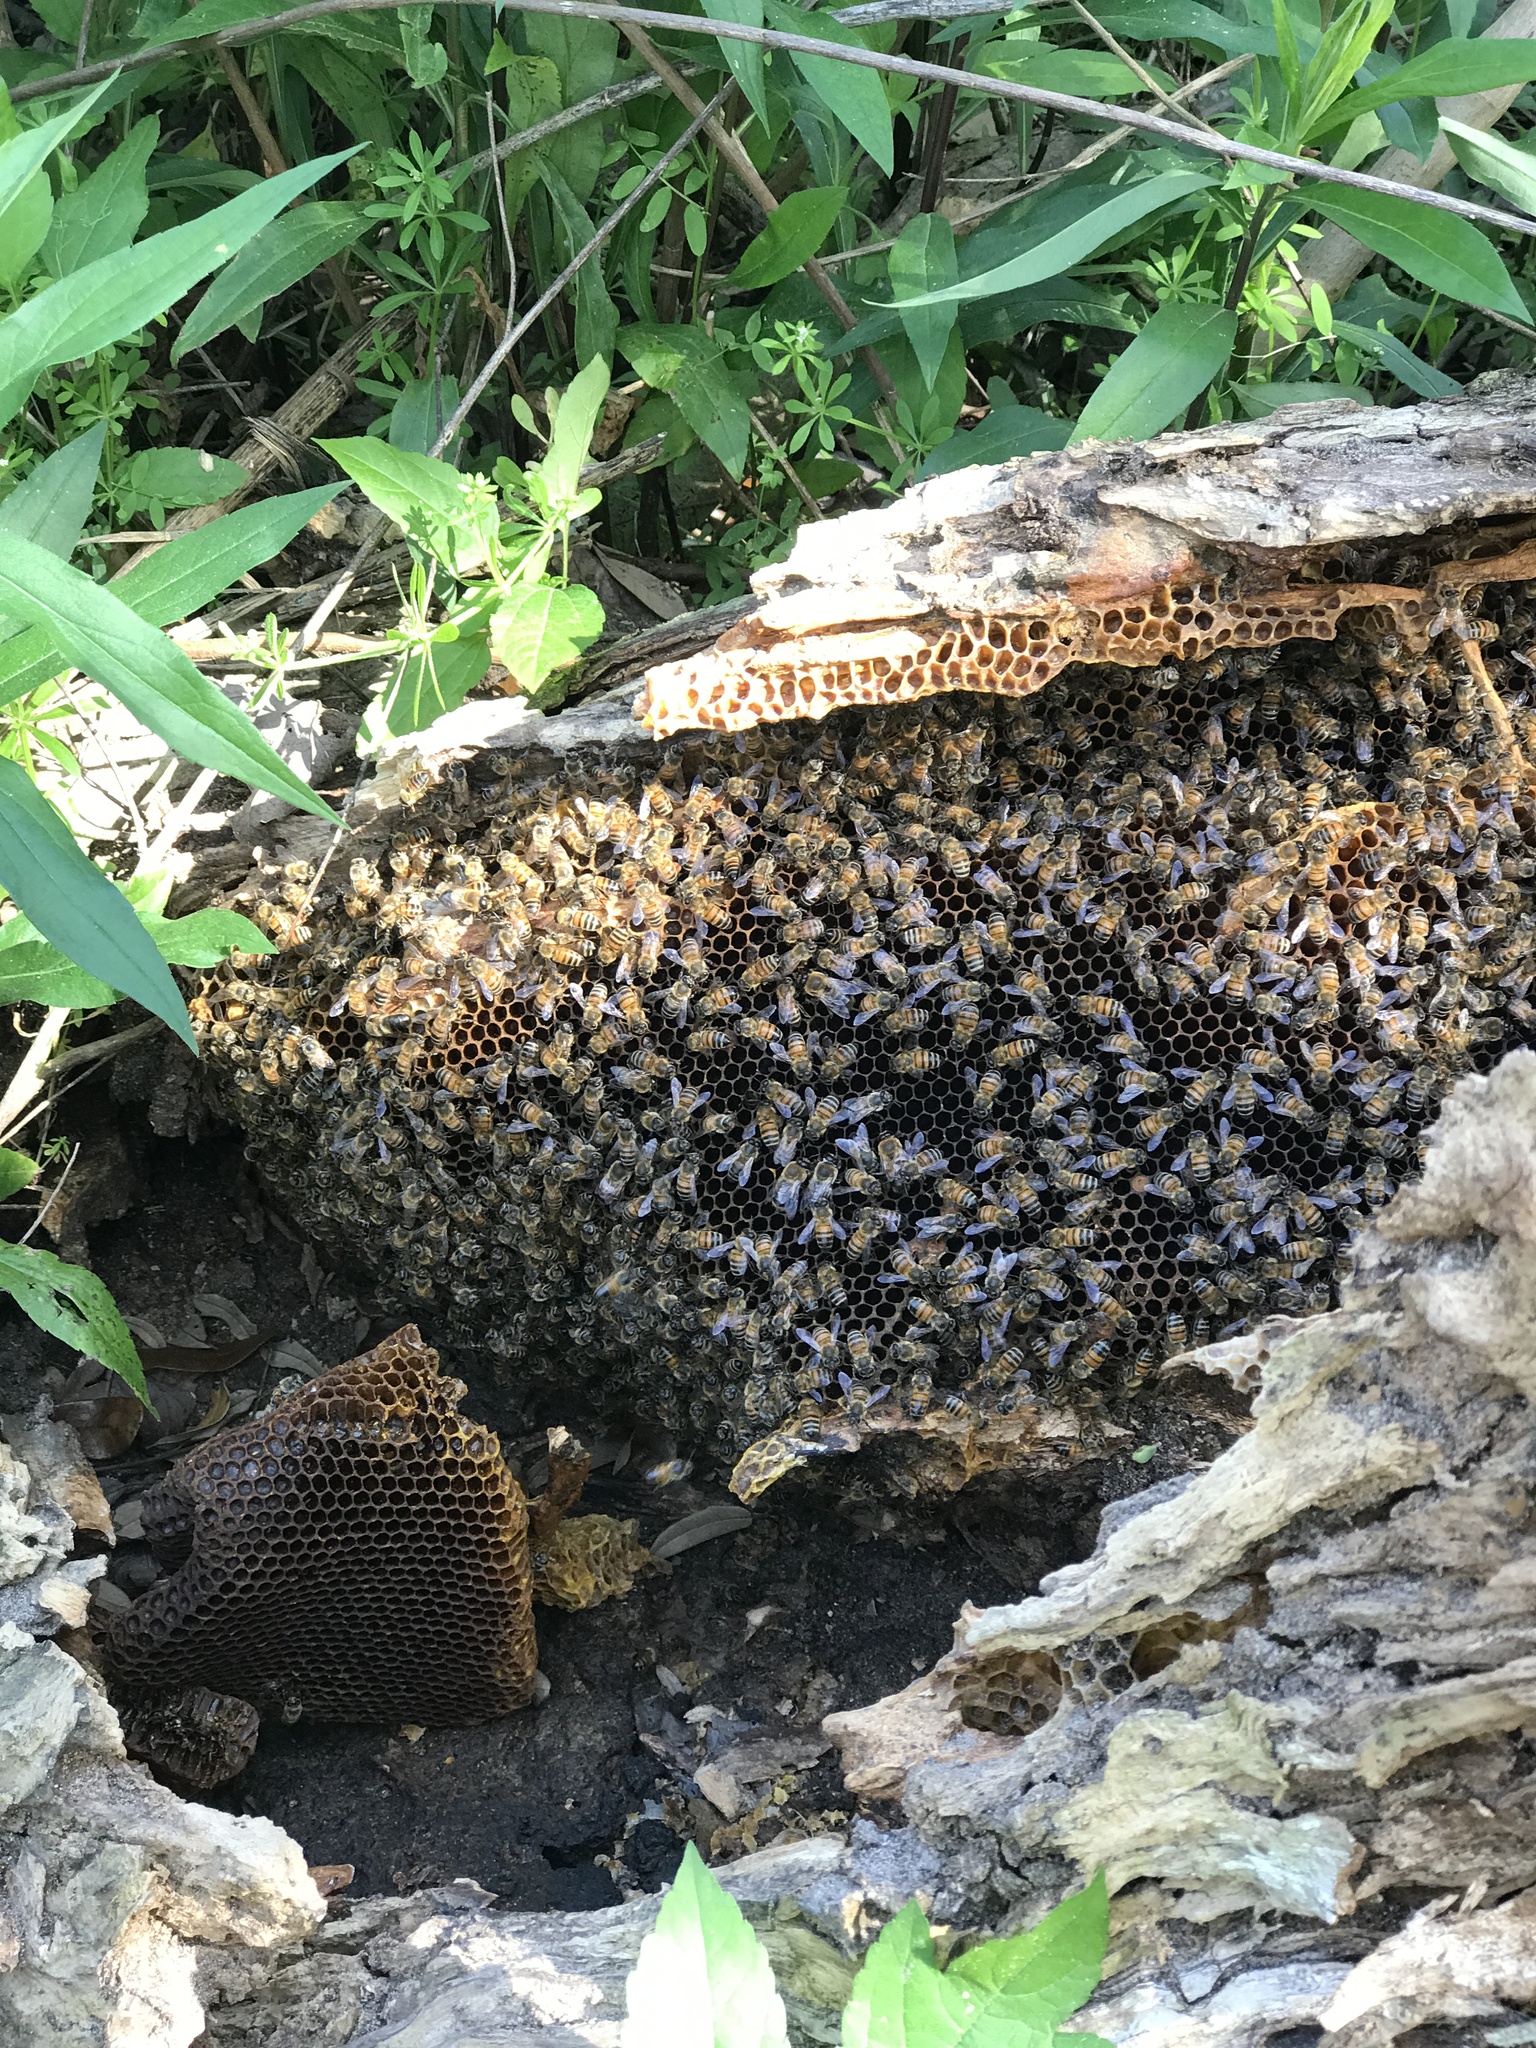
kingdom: Animalia
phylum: Arthropoda
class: Insecta
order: Hymenoptera
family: Apidae
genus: Apis
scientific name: Apis mellifera
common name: Honey bee
